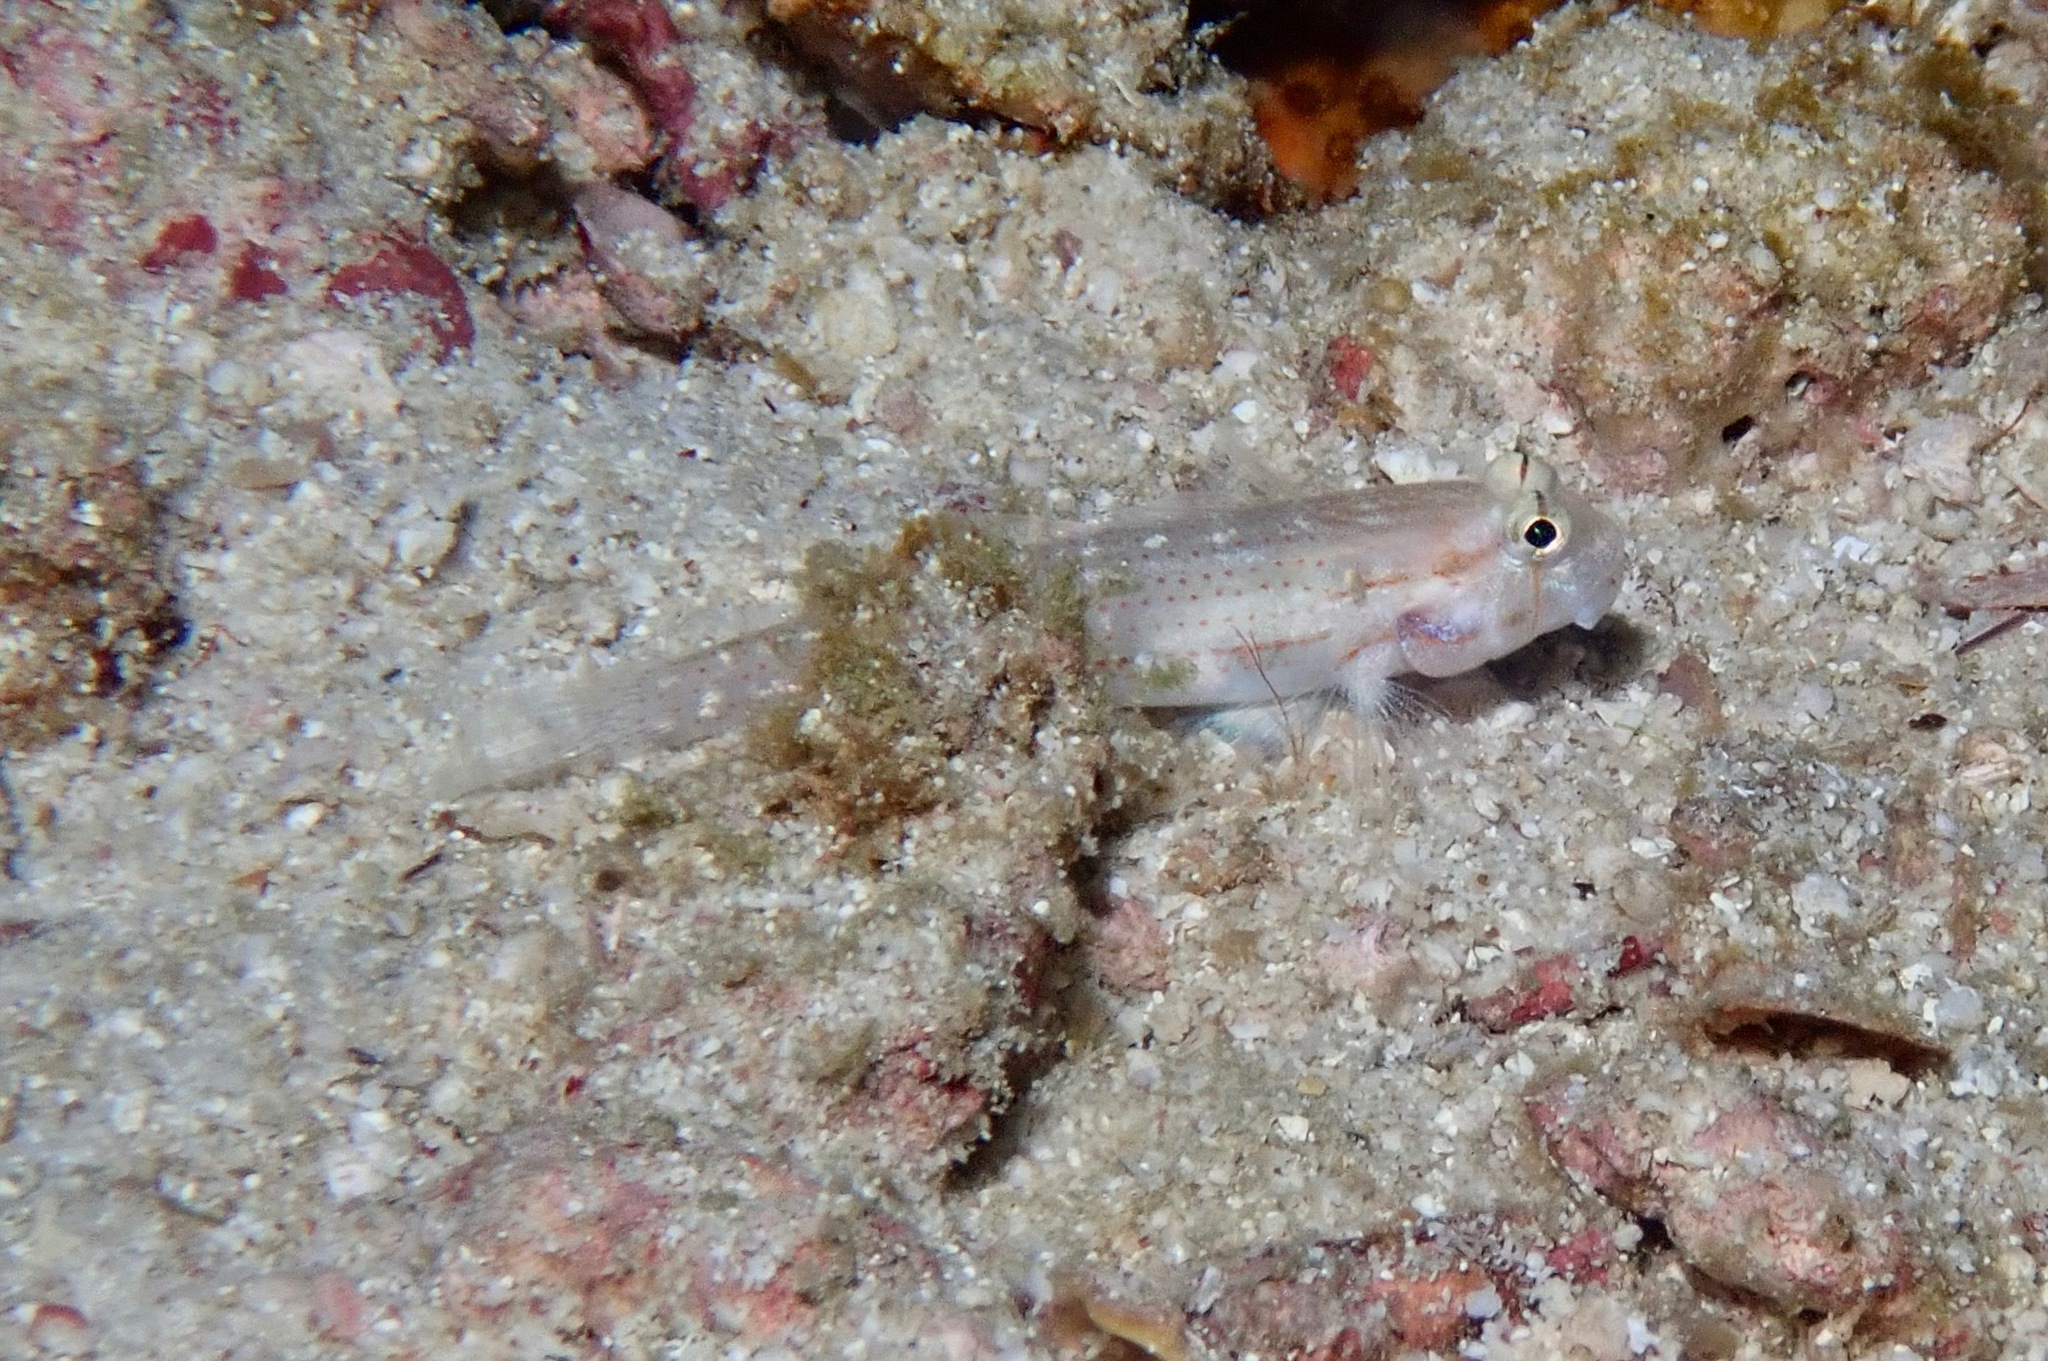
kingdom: Animalia
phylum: Chordata
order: Perciformes
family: Gobiidae
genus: Gnatholepis
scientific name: Gnatholepis cauerensis
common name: Bridled goby
